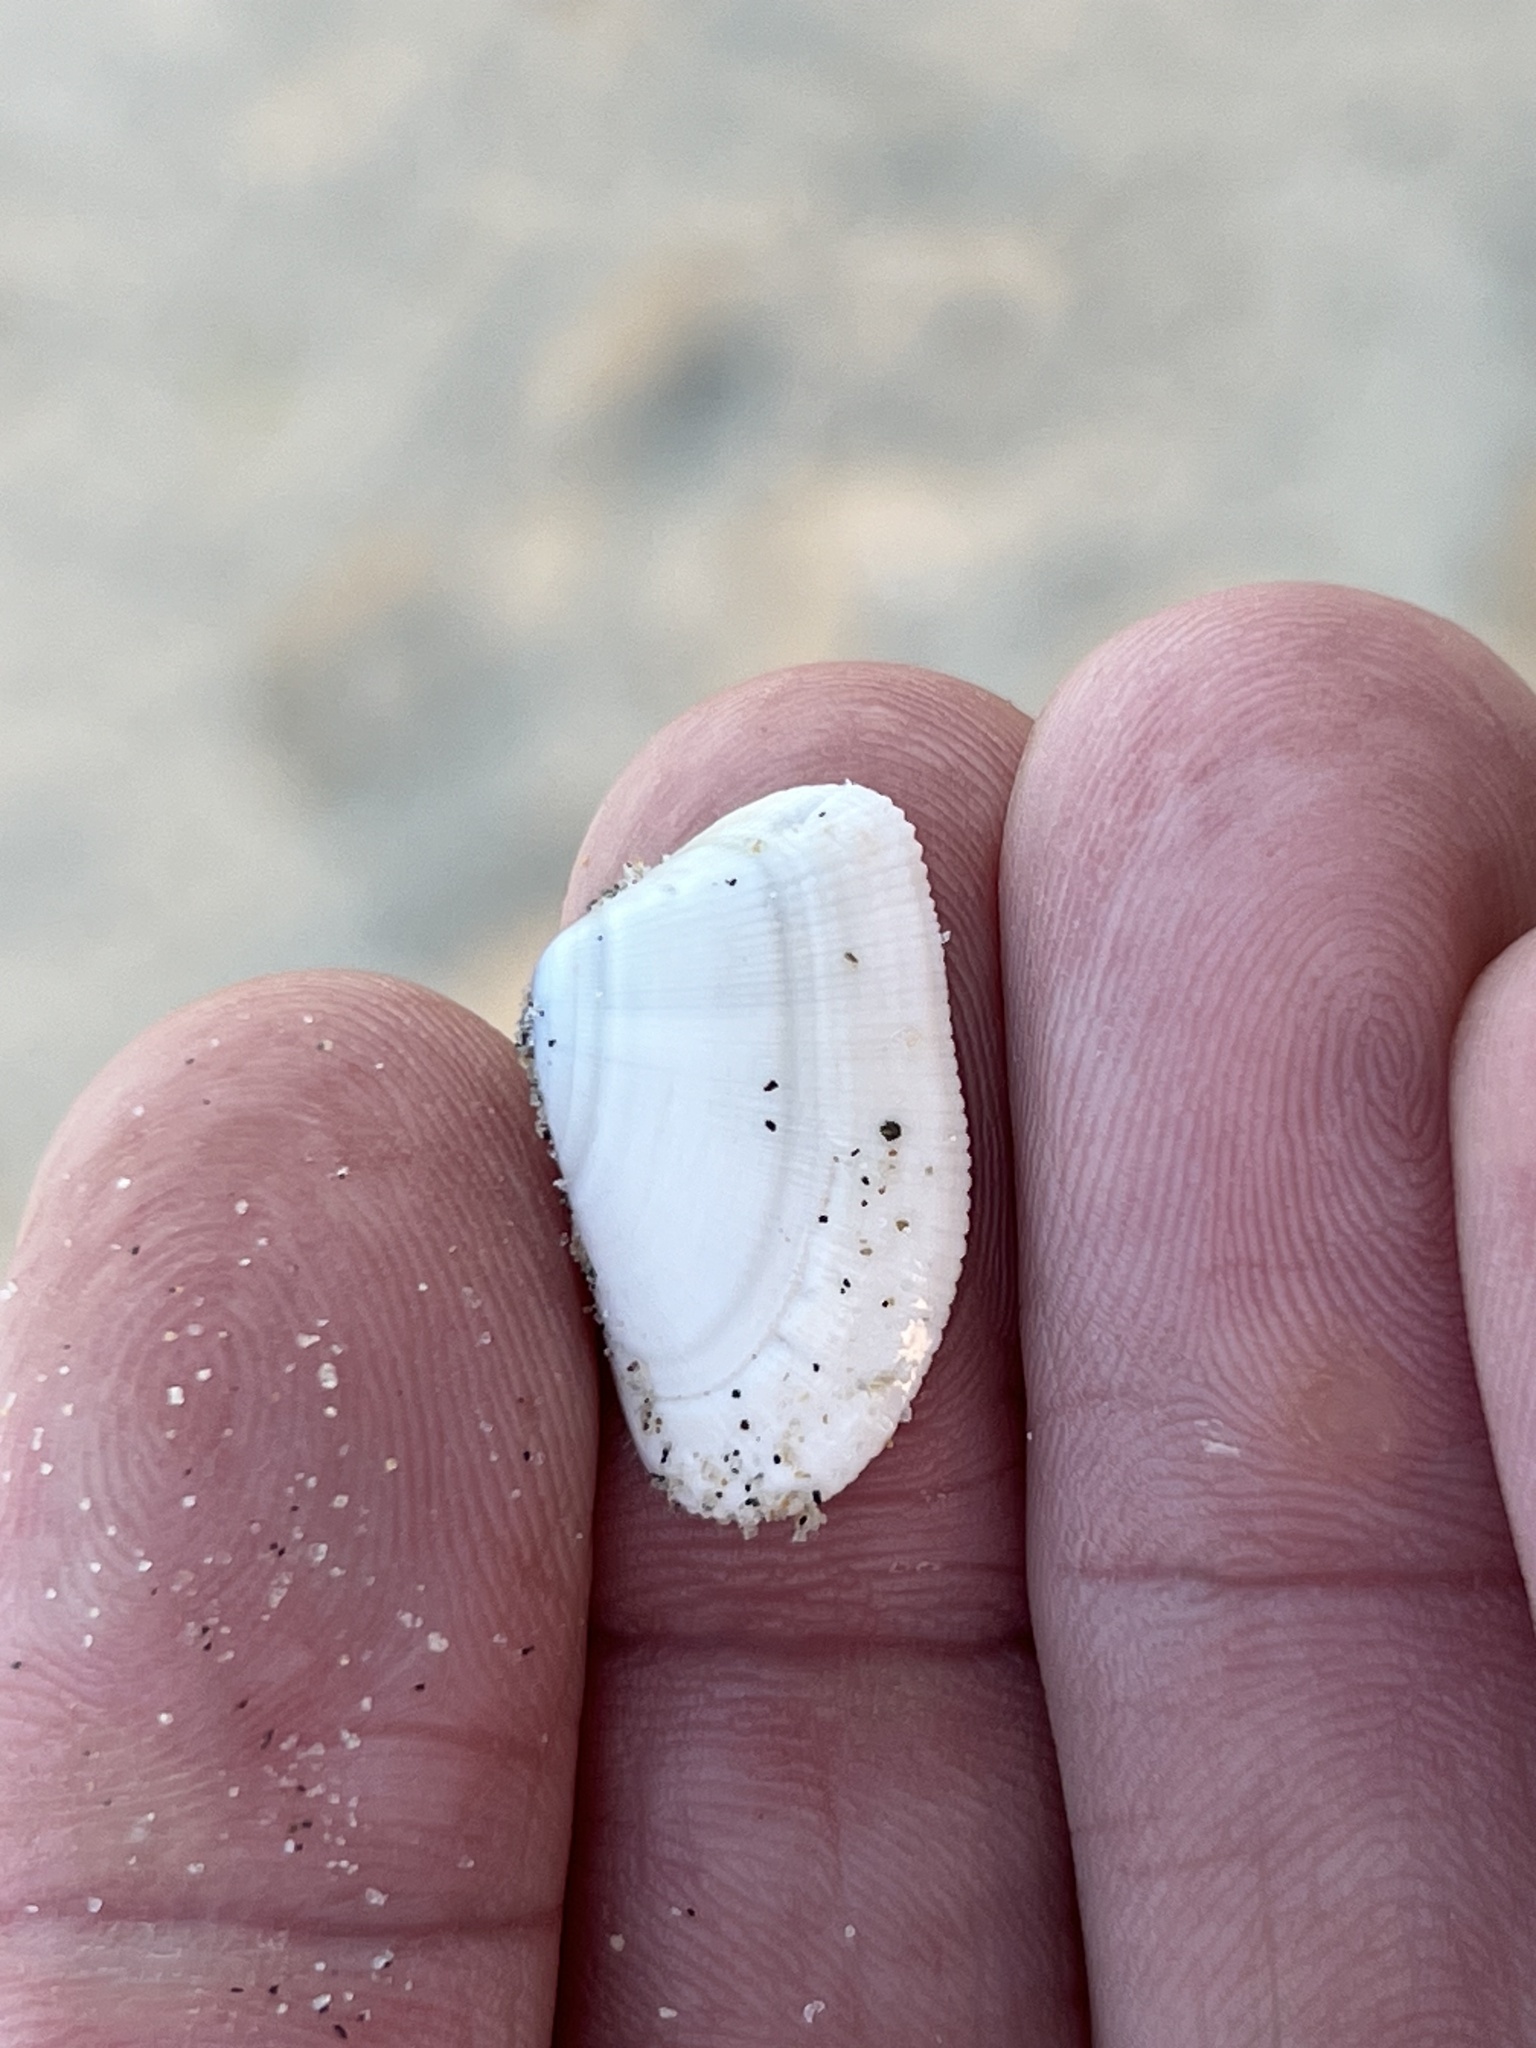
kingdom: Animalia
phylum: Mollusca
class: Bivalvia
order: Cardiida
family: Donacidae
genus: Donax
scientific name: Donax gouldii
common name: Gould beanclam
